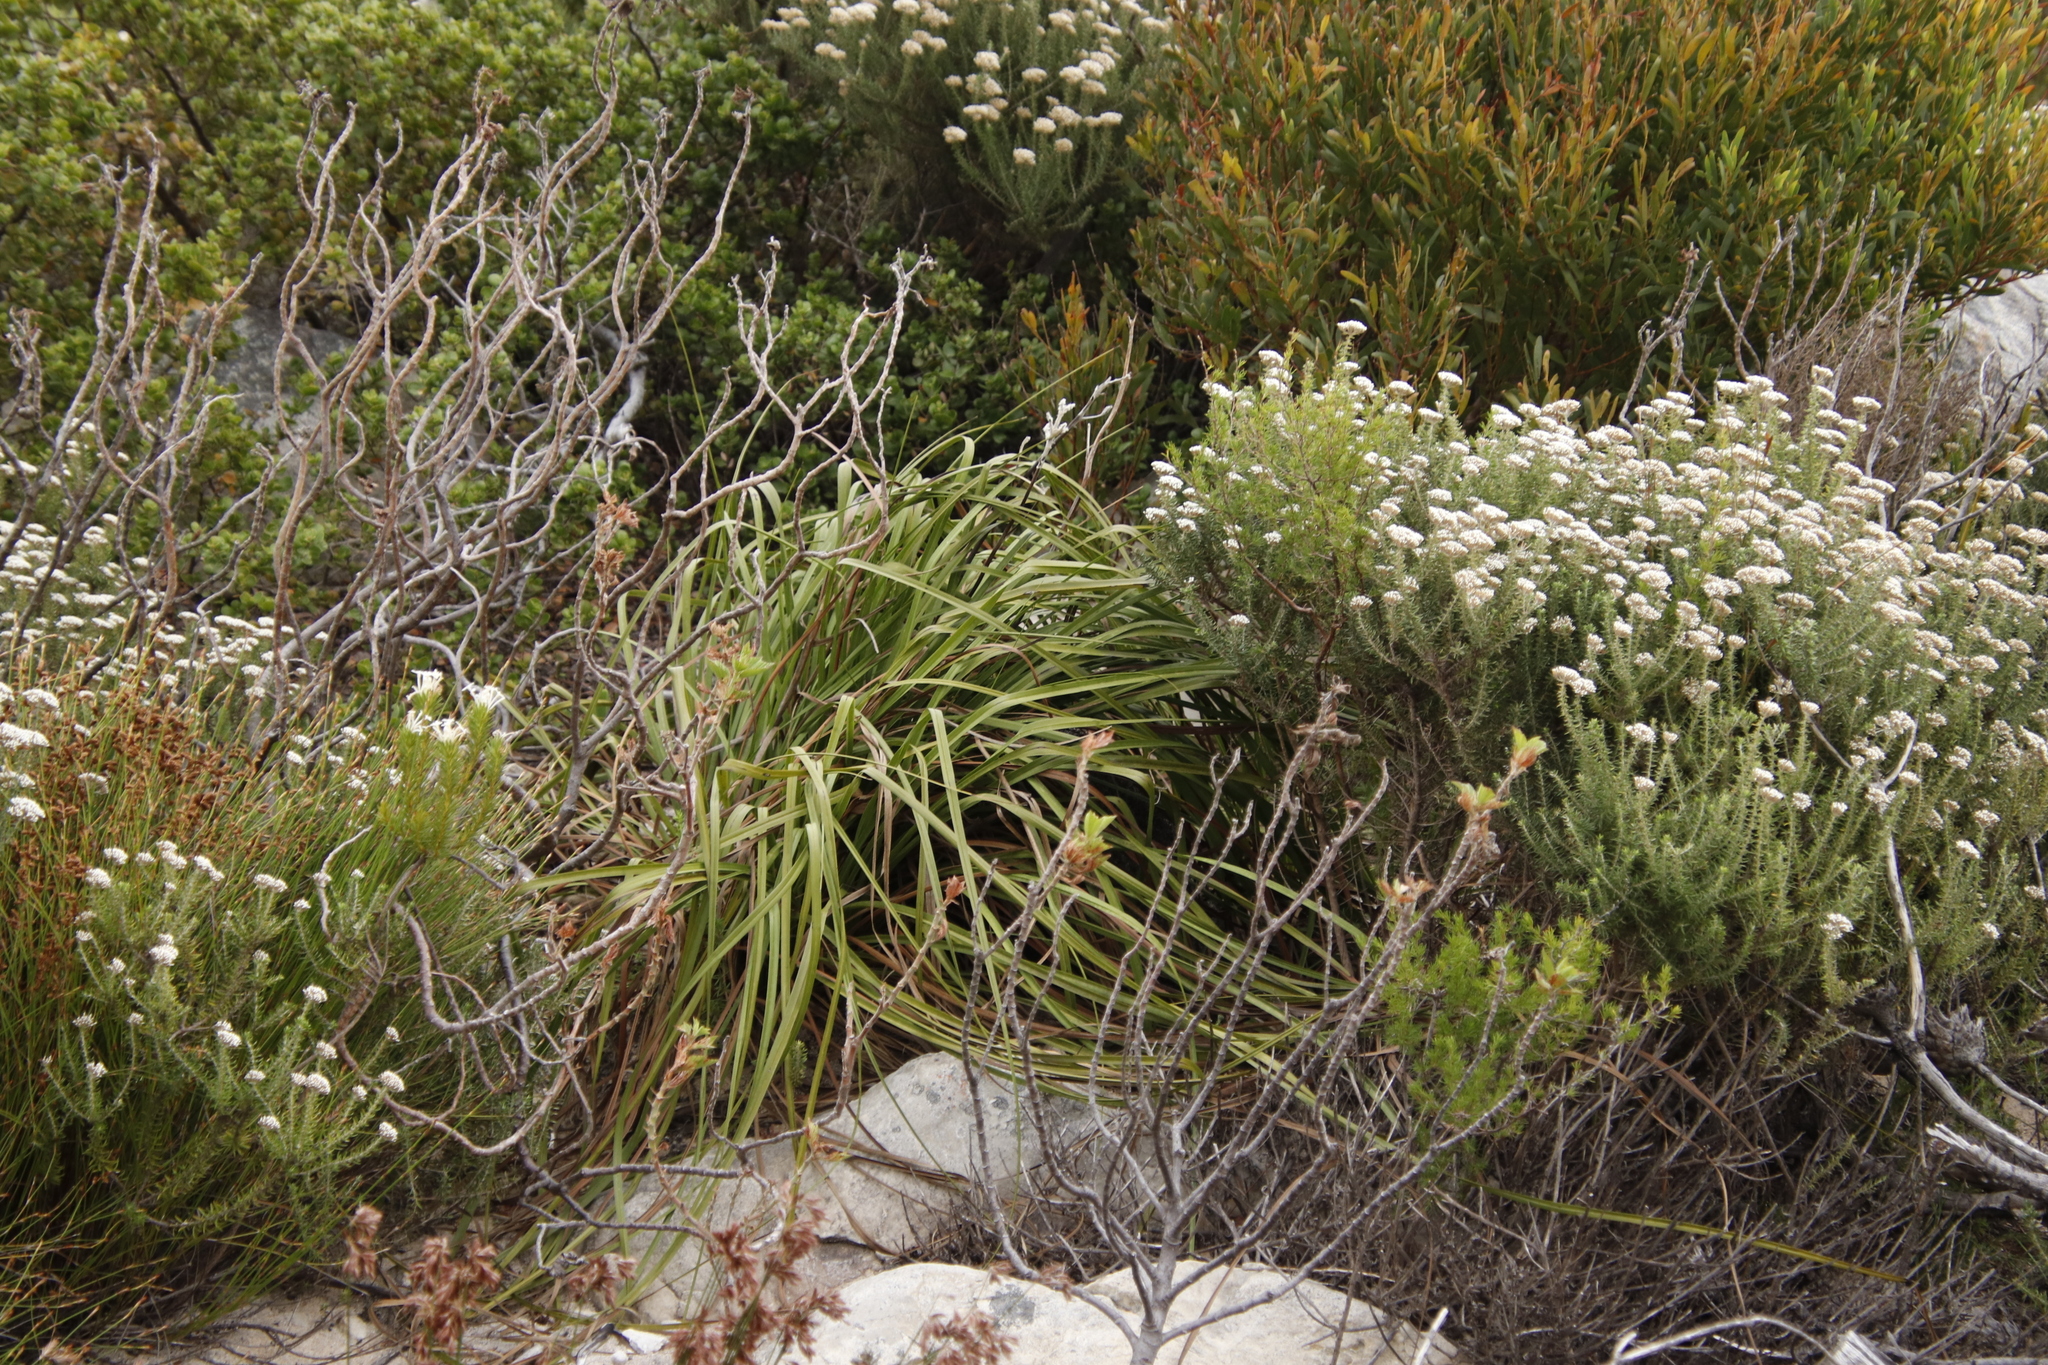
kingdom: Plantae
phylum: Tracheophyta
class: Liliopsida
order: Asparagales
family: Lanariaceae
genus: Lanaria
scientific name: Lanaria lanata
